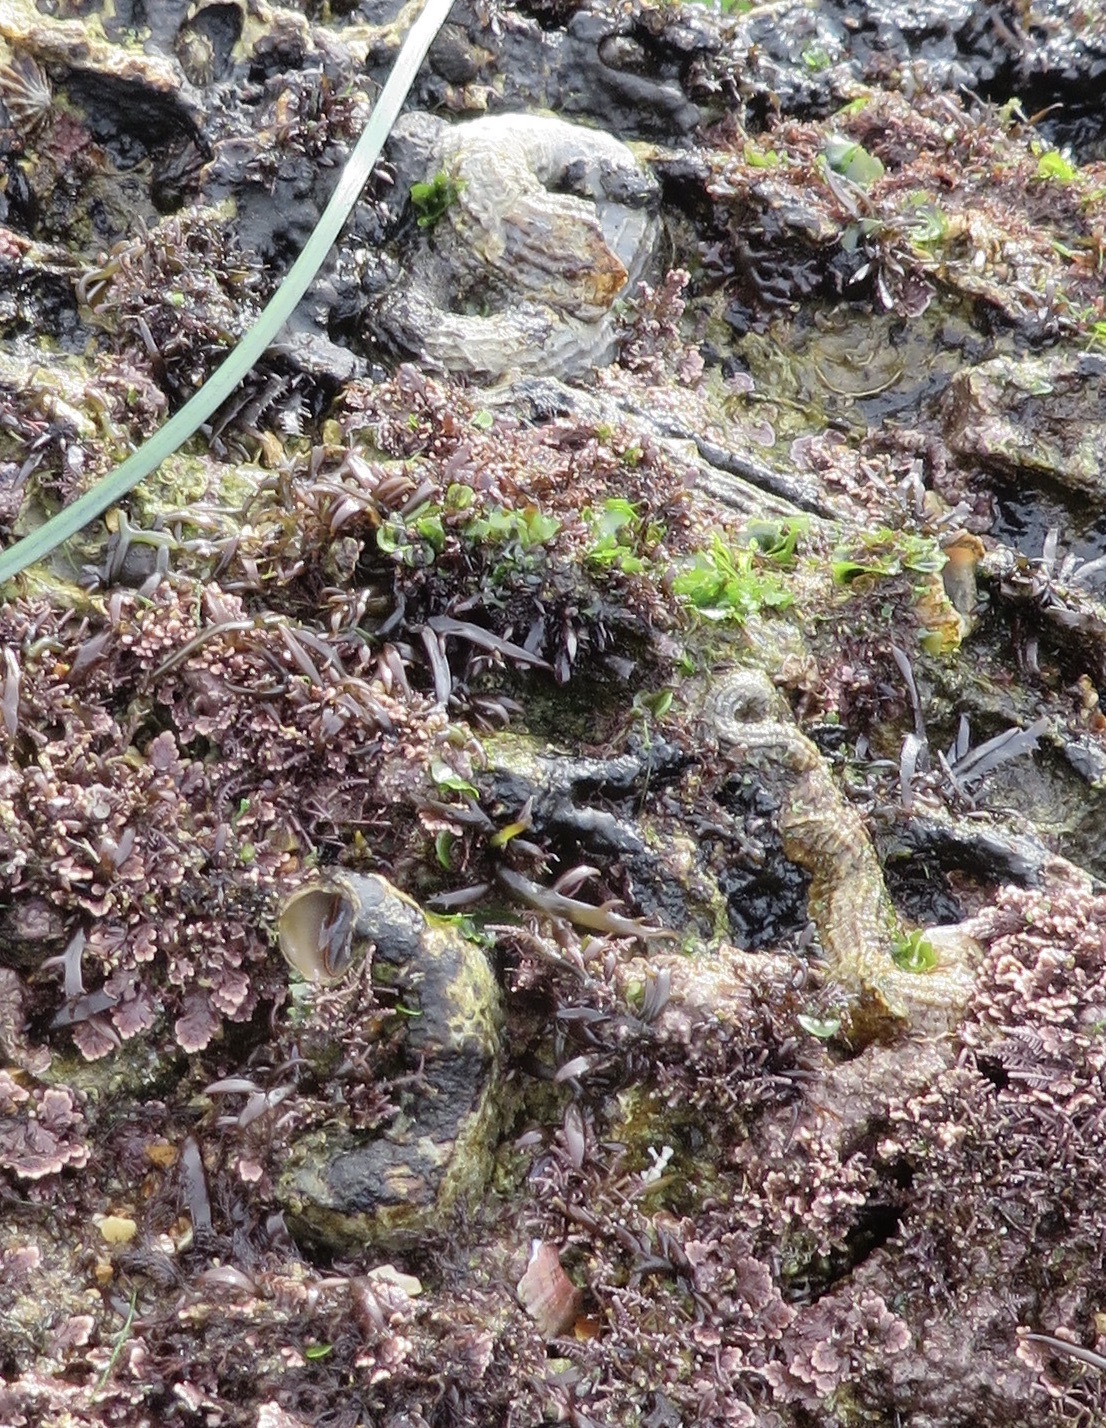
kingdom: Animalia
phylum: Mollusca
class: Gastropoda
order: Littorinimorpha
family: Vermetidae
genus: Thylacodes
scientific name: Thylacodes squamigerus
